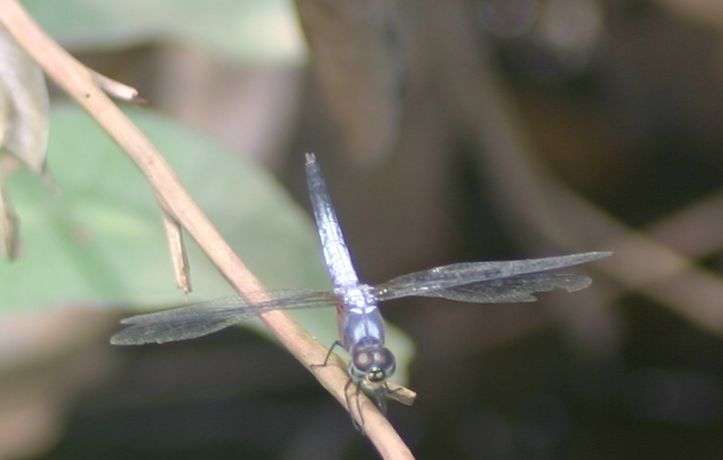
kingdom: Animalia
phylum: Arthropoda
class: Insecta
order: Odonata
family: Libellulidae
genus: Brachydiplax
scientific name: Brachydiplax chalybea
